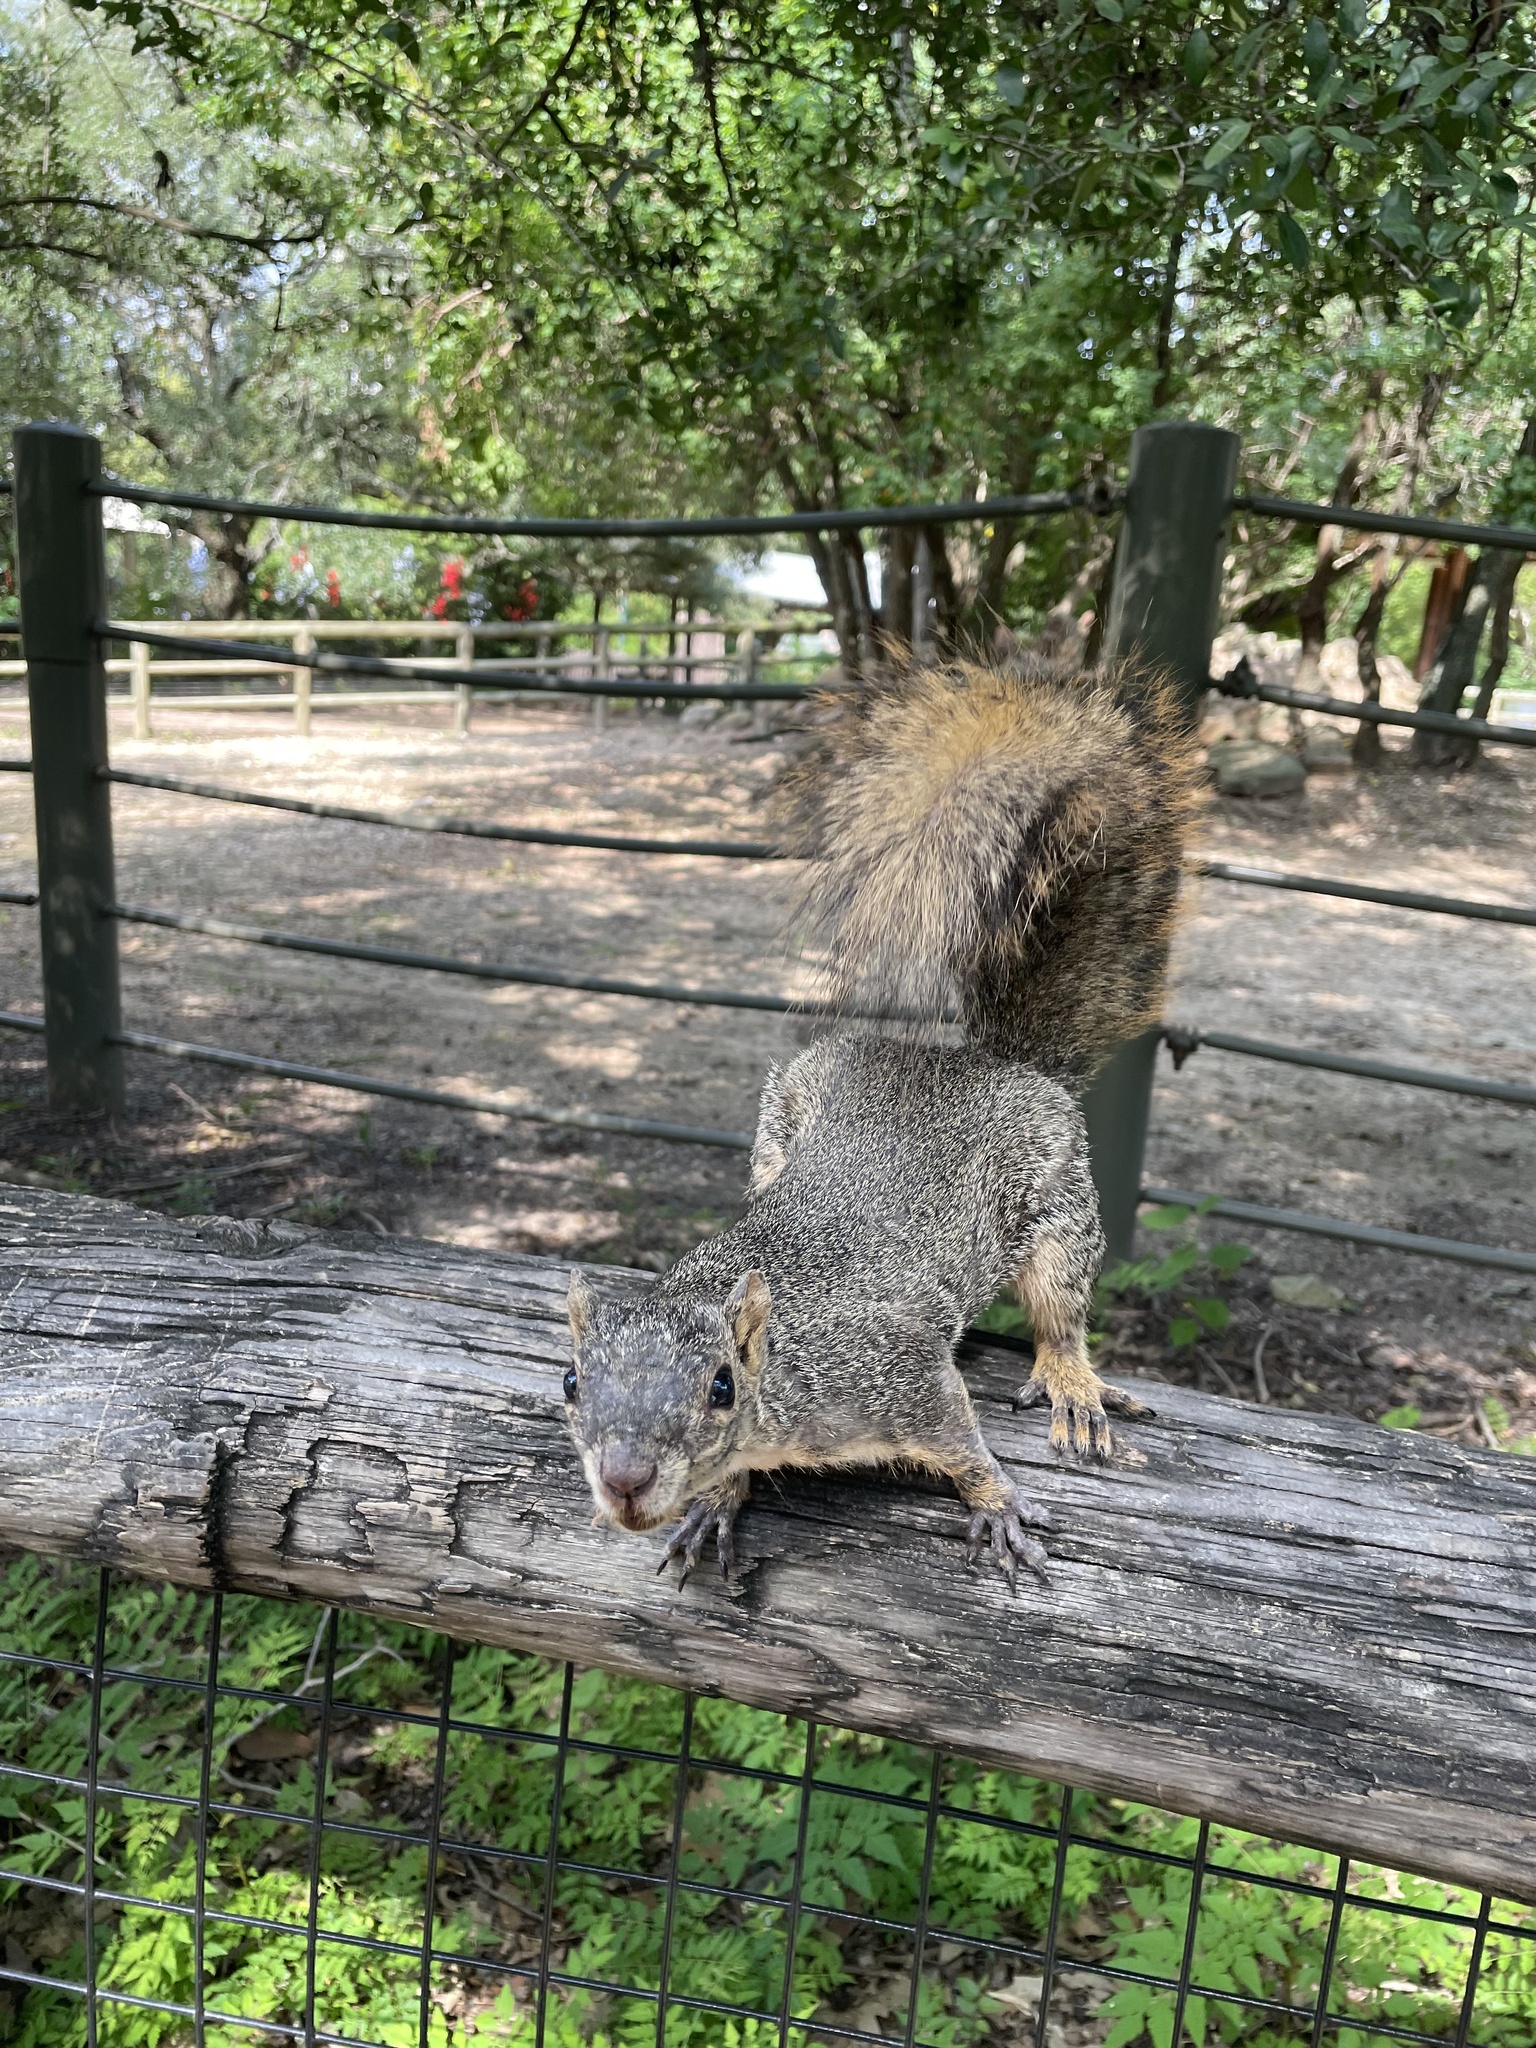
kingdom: Animalia
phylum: Chordata
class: Mammalia
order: Rodentia
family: Sciuridae
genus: Sciurus
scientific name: Sciurus niger
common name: Fox squirrel
